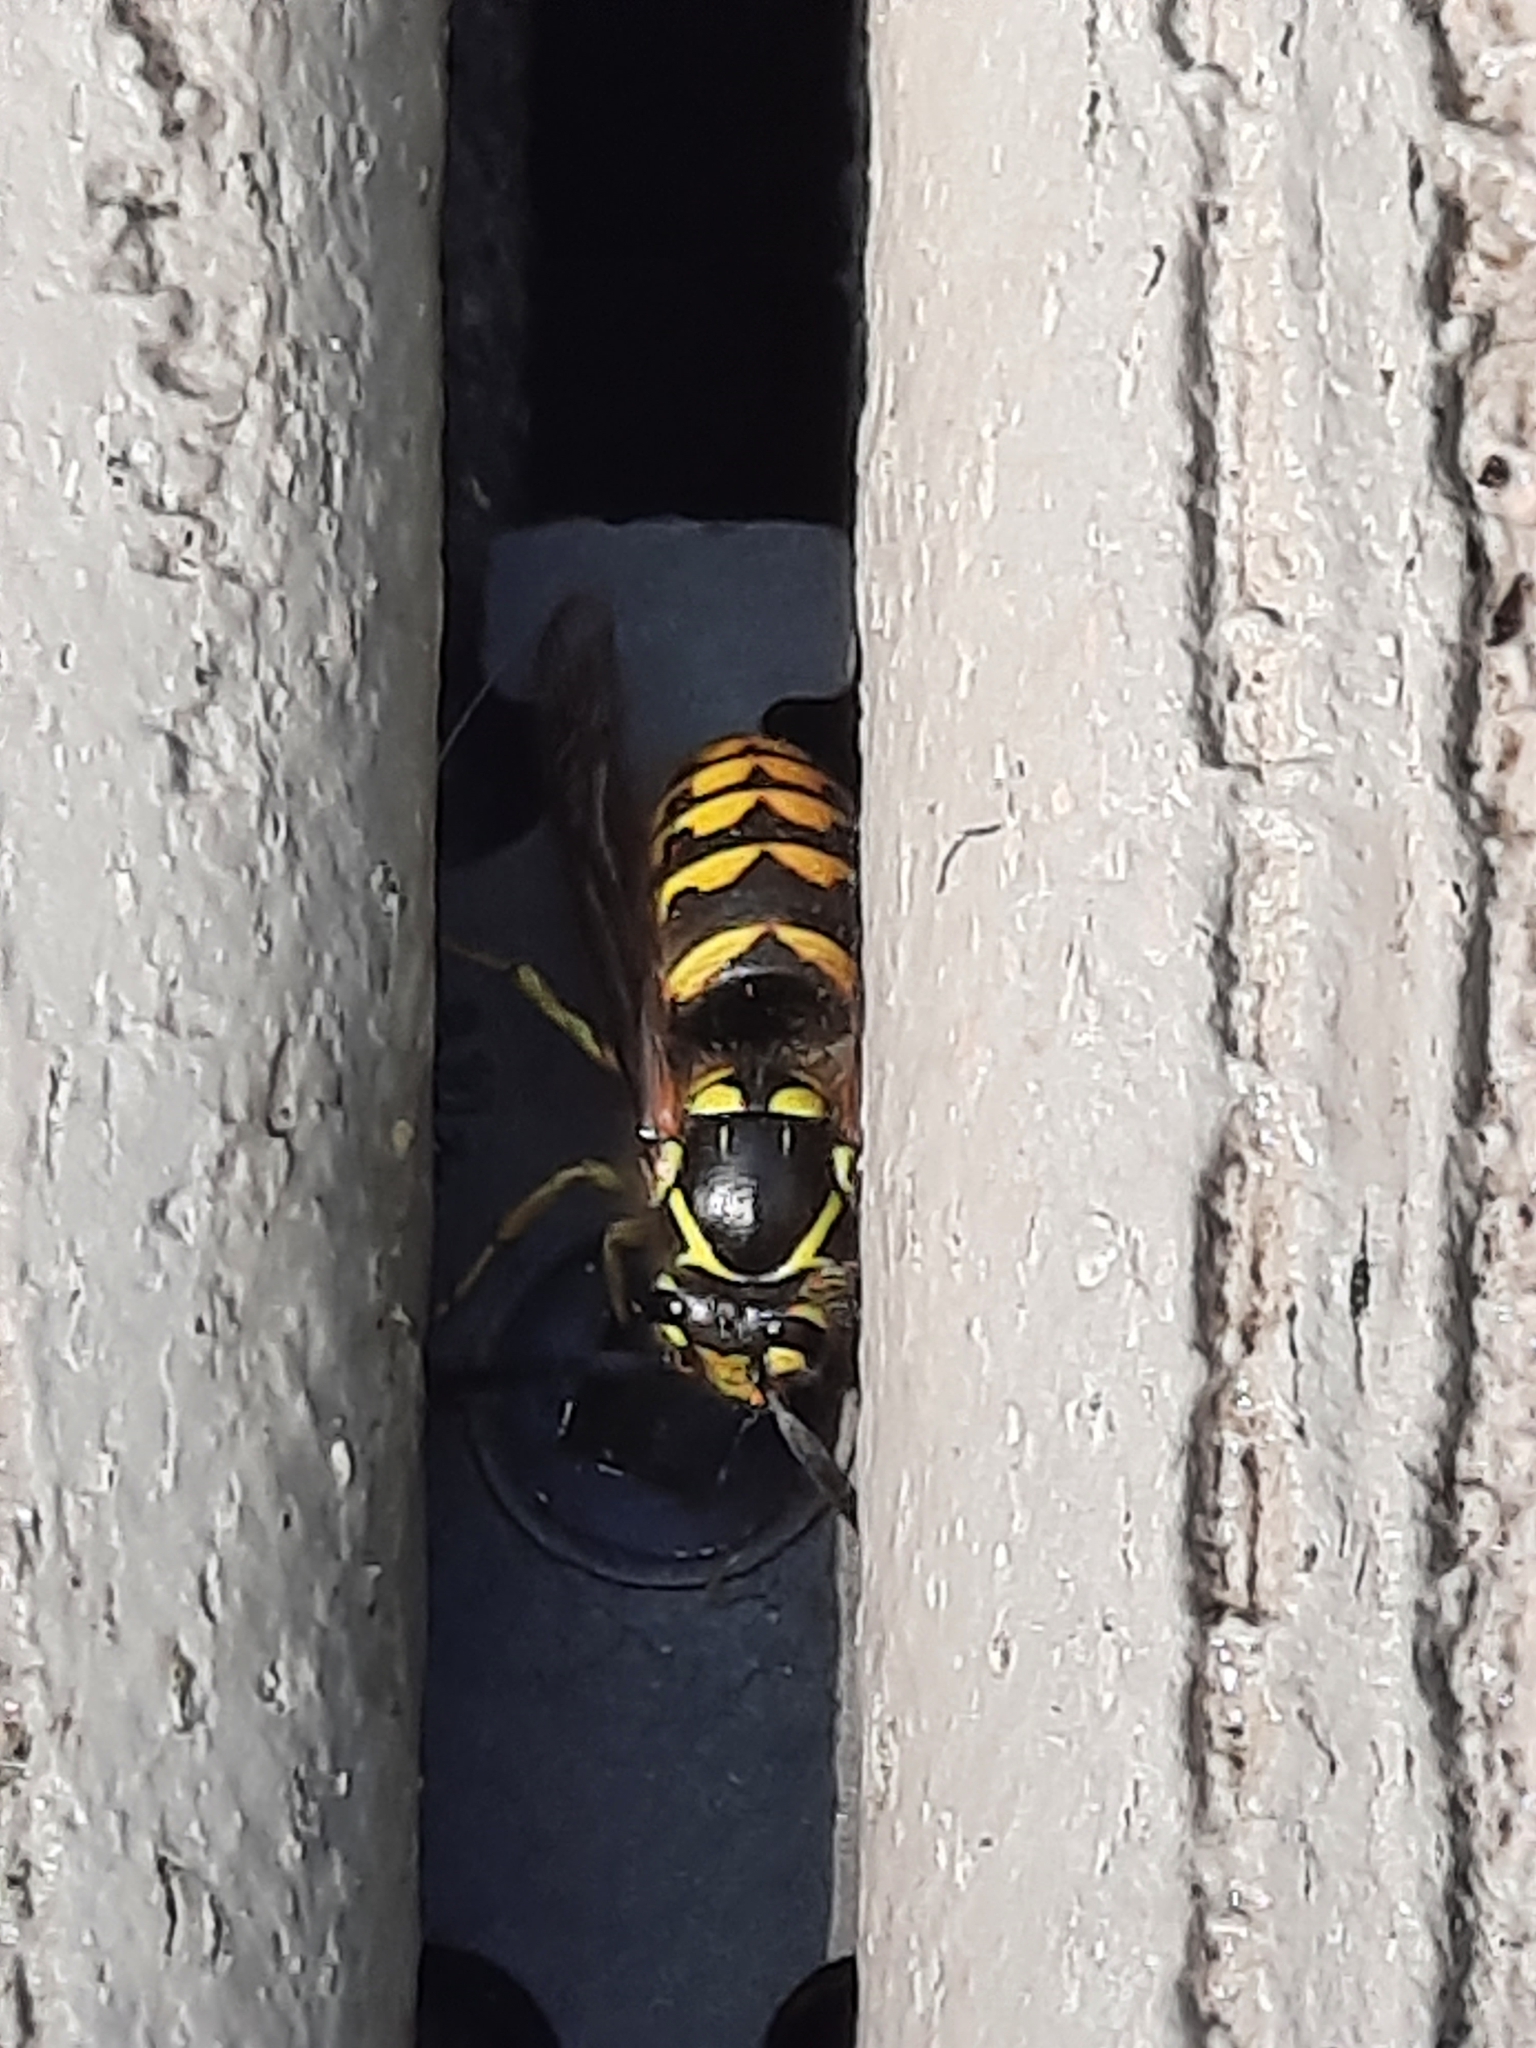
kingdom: Animalia
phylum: Arthropoda
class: Insecta
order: Hymenoptera
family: Vespidae
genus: Dolichovespula
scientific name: Dolichovespula arenaria
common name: Aerial yellowjacket
